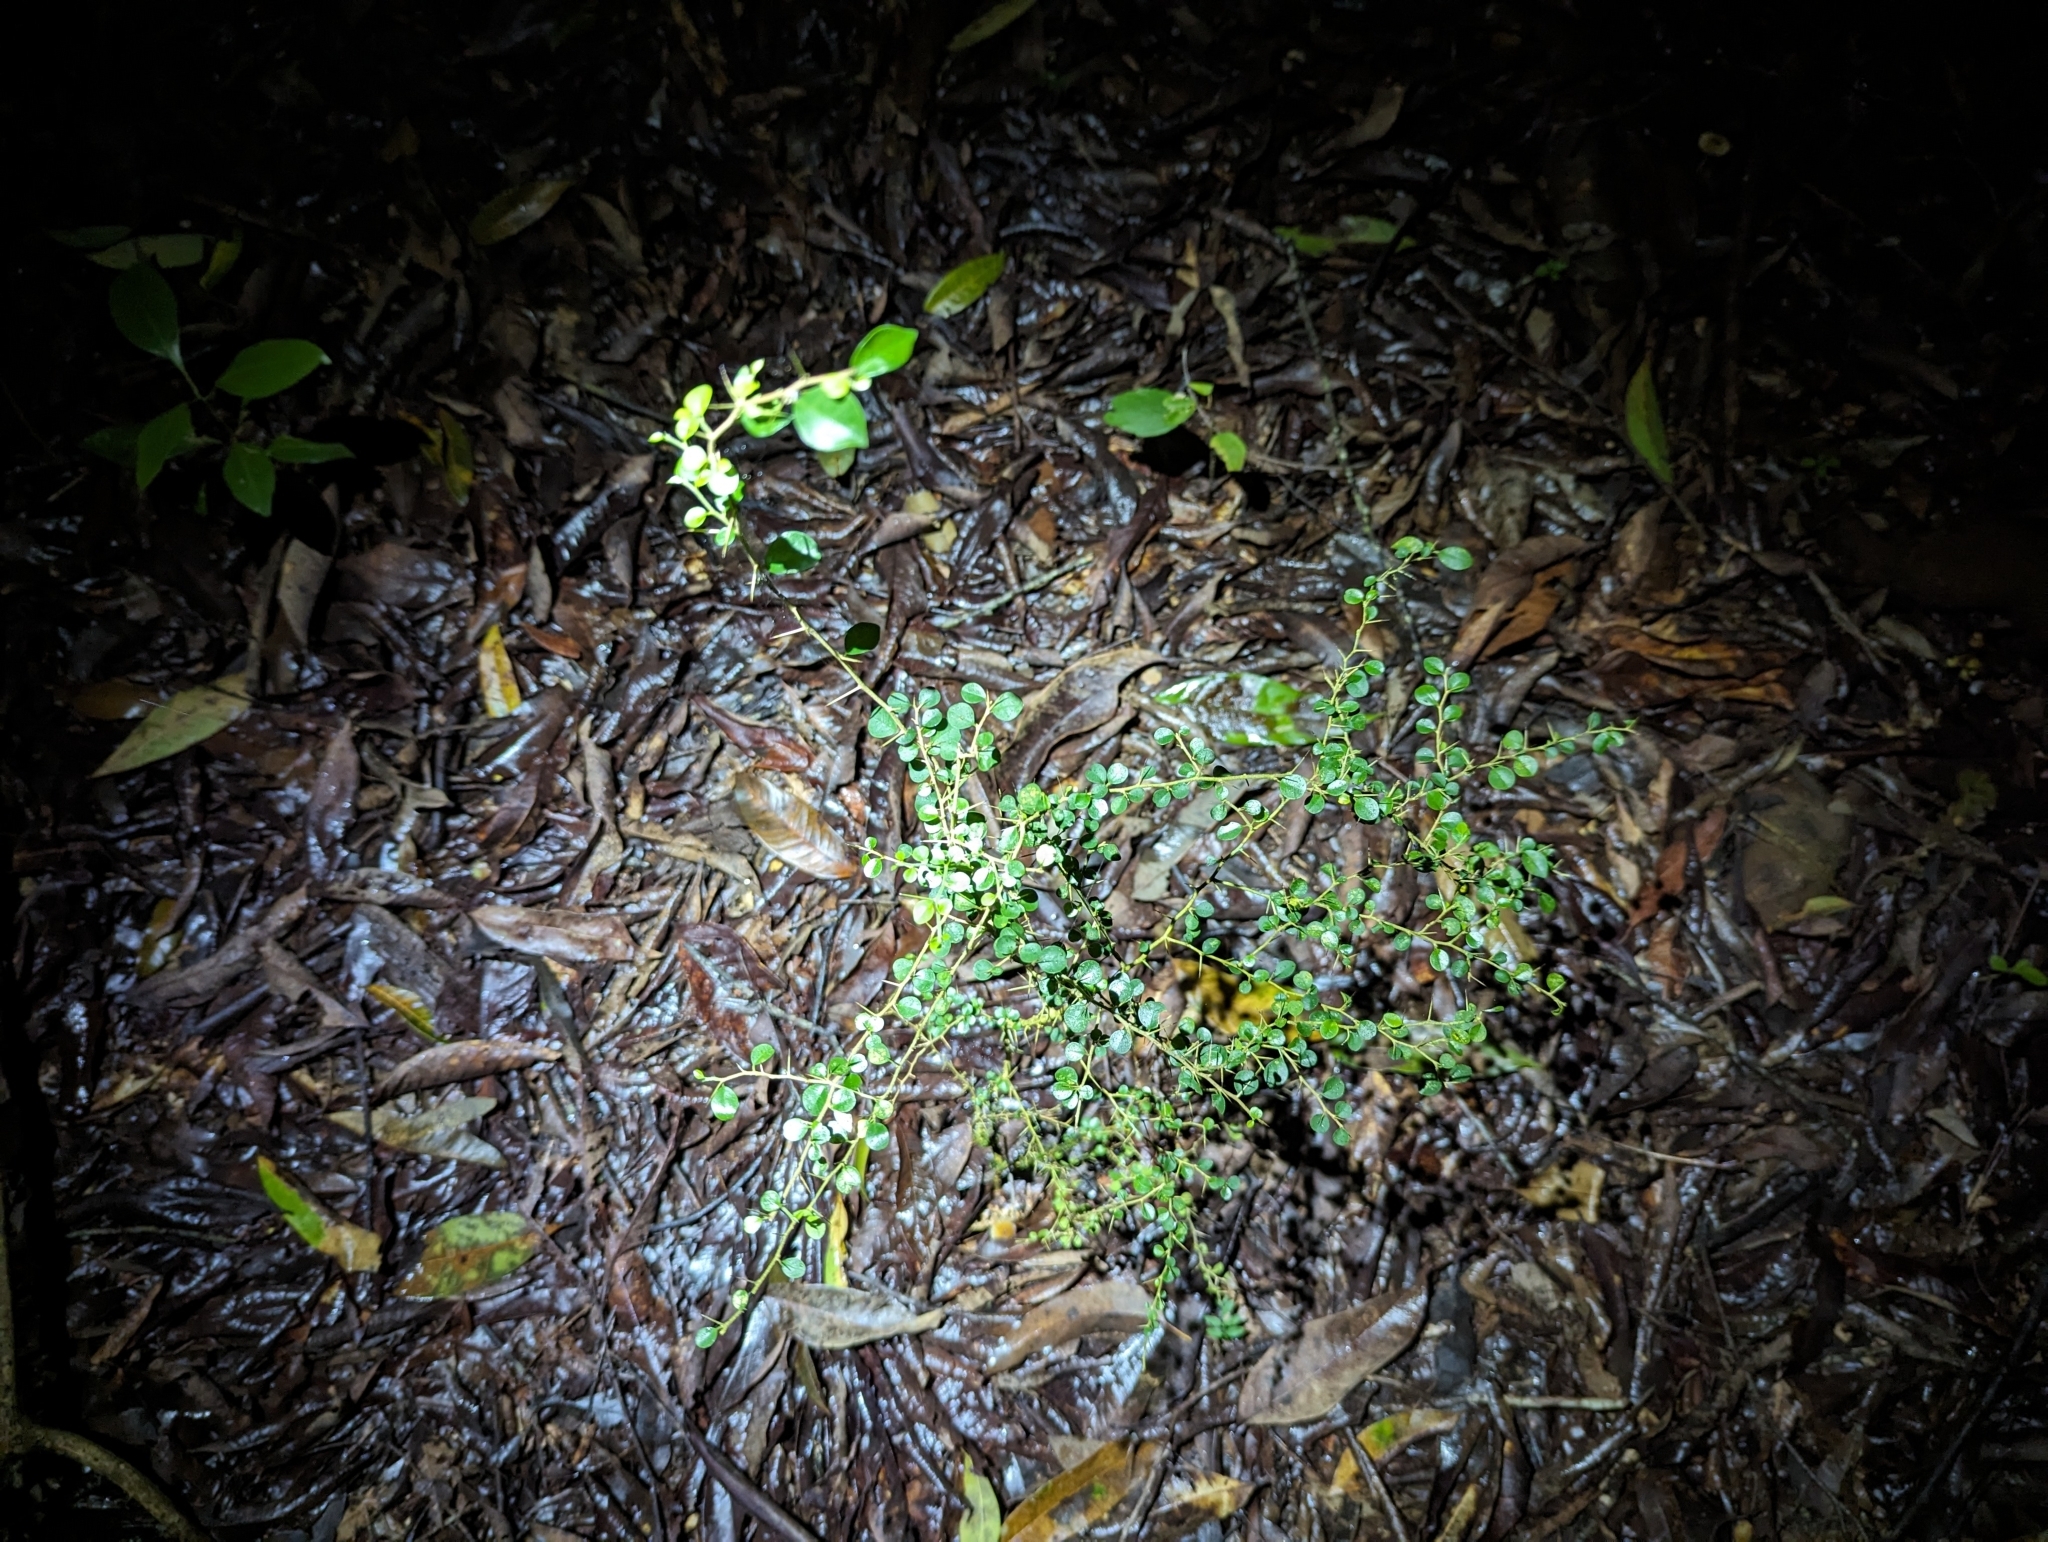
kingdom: Plantae
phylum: Tracheophyta
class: Magnoliopsida
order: Rosales
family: Moraceae
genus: Maclura
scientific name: Maclura cochinchinensis
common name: Cockspurthorn
